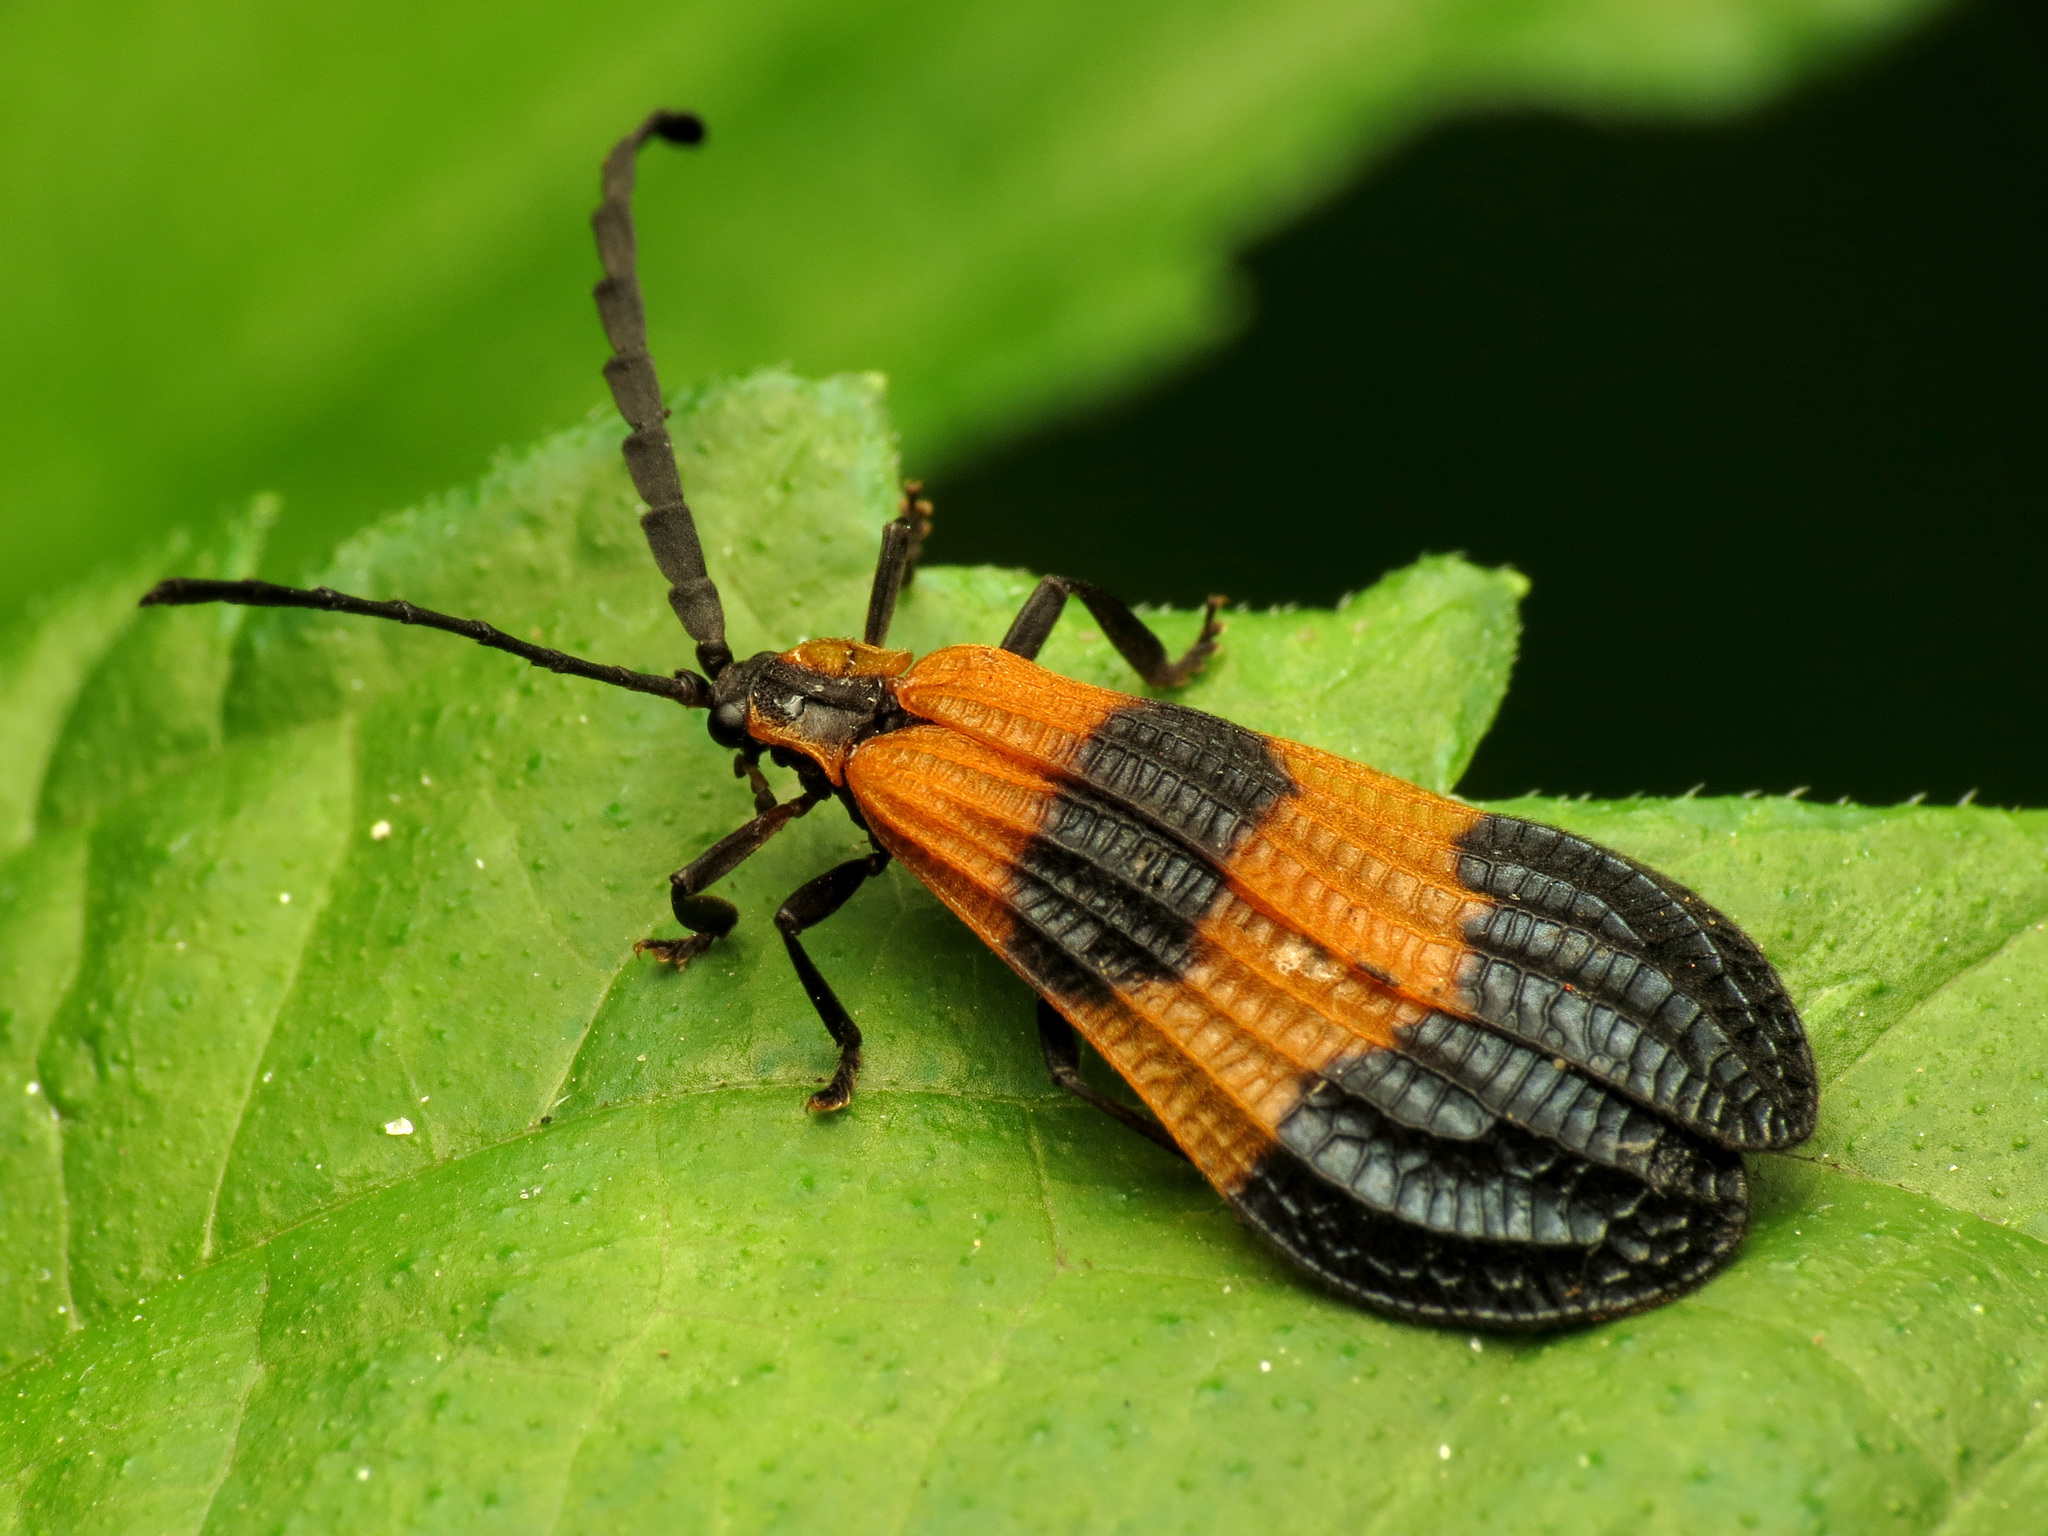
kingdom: Animalia
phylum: Arthropoda
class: Insecta
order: Coleoptera
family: Lycidae
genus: Calopteron
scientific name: Calopteron terminale
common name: End band net-winged beetle
